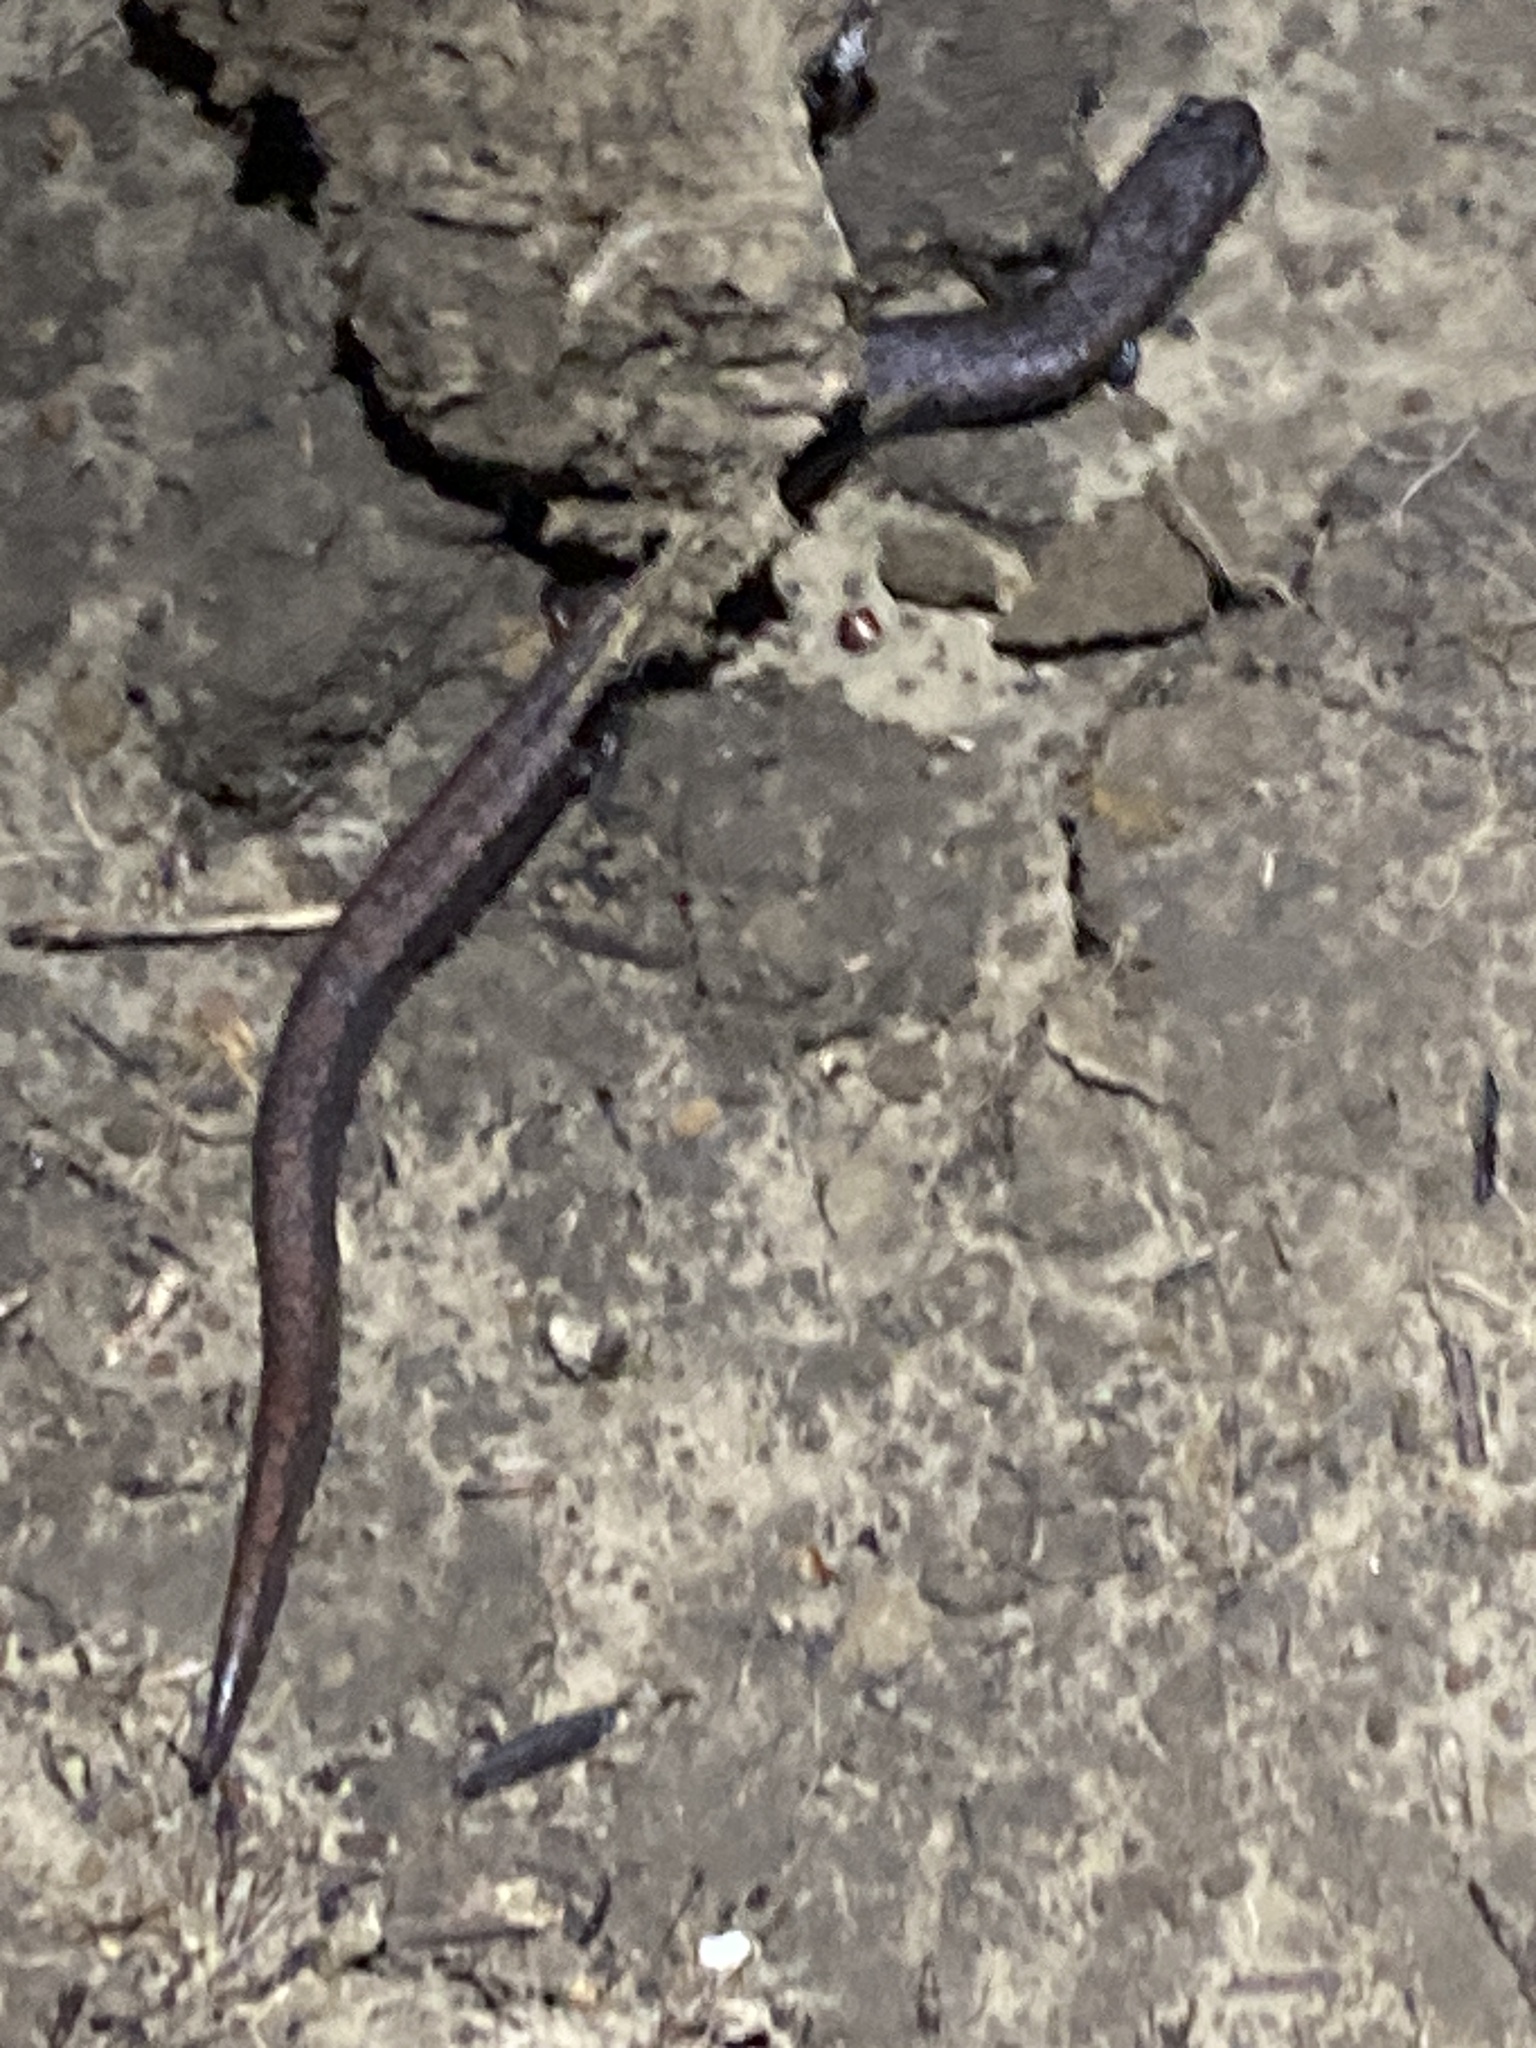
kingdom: Animalia
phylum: Chordata
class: Amphibia
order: Caudata
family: Plethodontidae
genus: Batrachoseps
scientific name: Batrachoseps attenuatus
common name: California slender salamander
